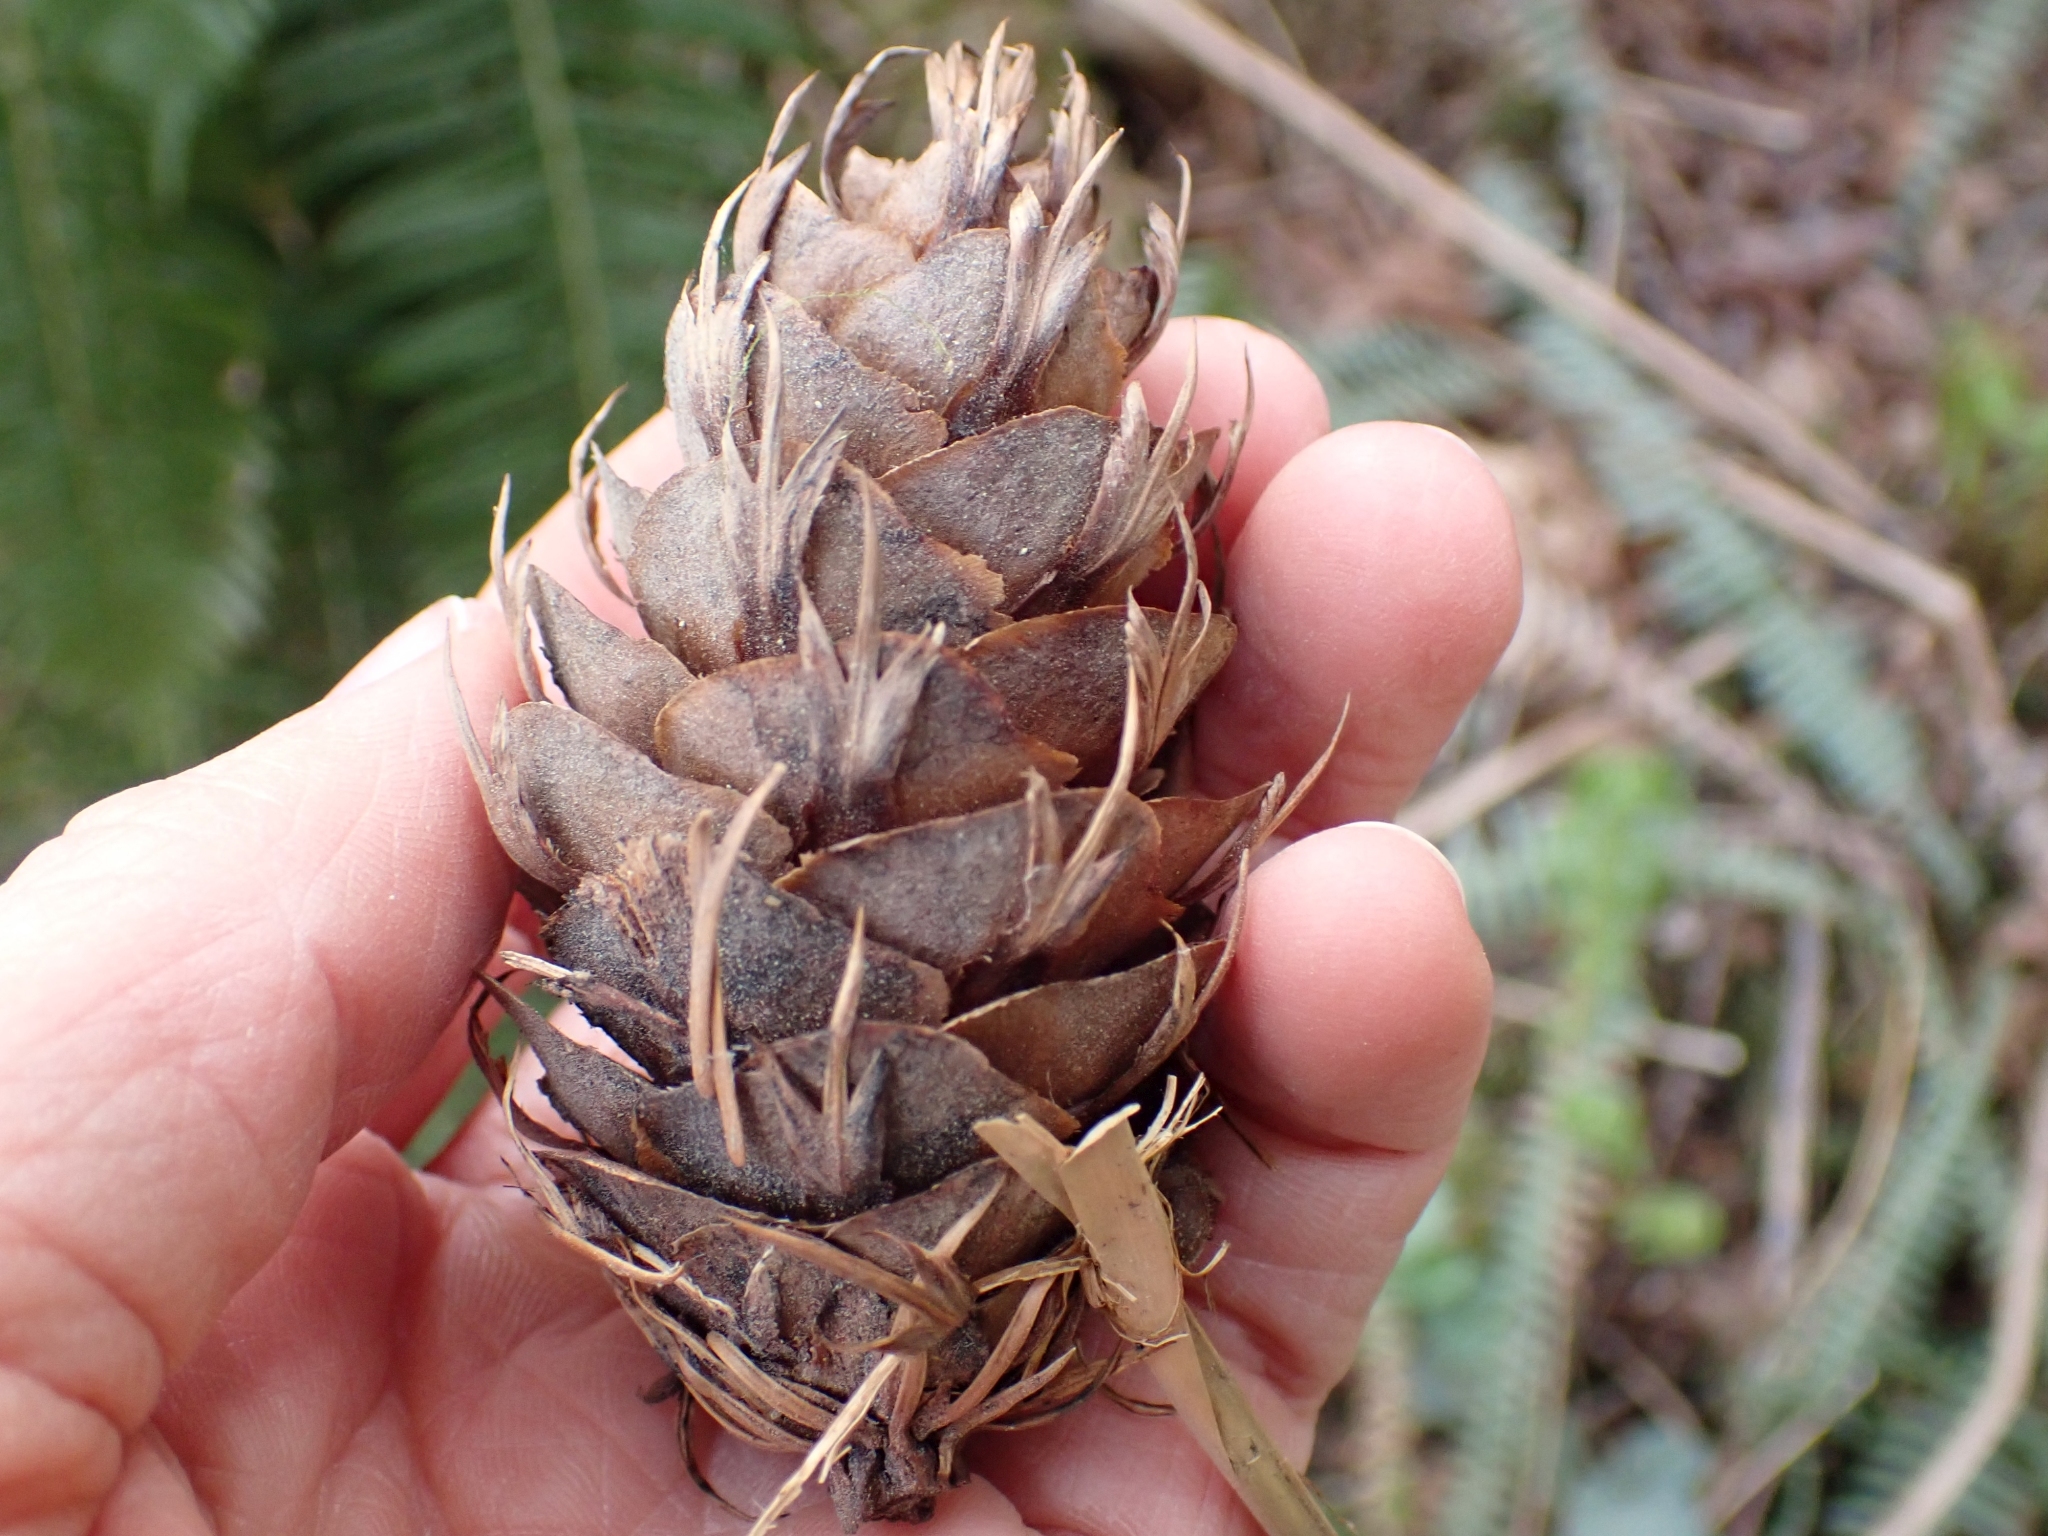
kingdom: Plantae
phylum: Tracheophyta
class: Pinopsida
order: Pinales
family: Pinaceae
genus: Pseudotsuga
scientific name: Pseudotsuga menziesii
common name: Douglas fir
